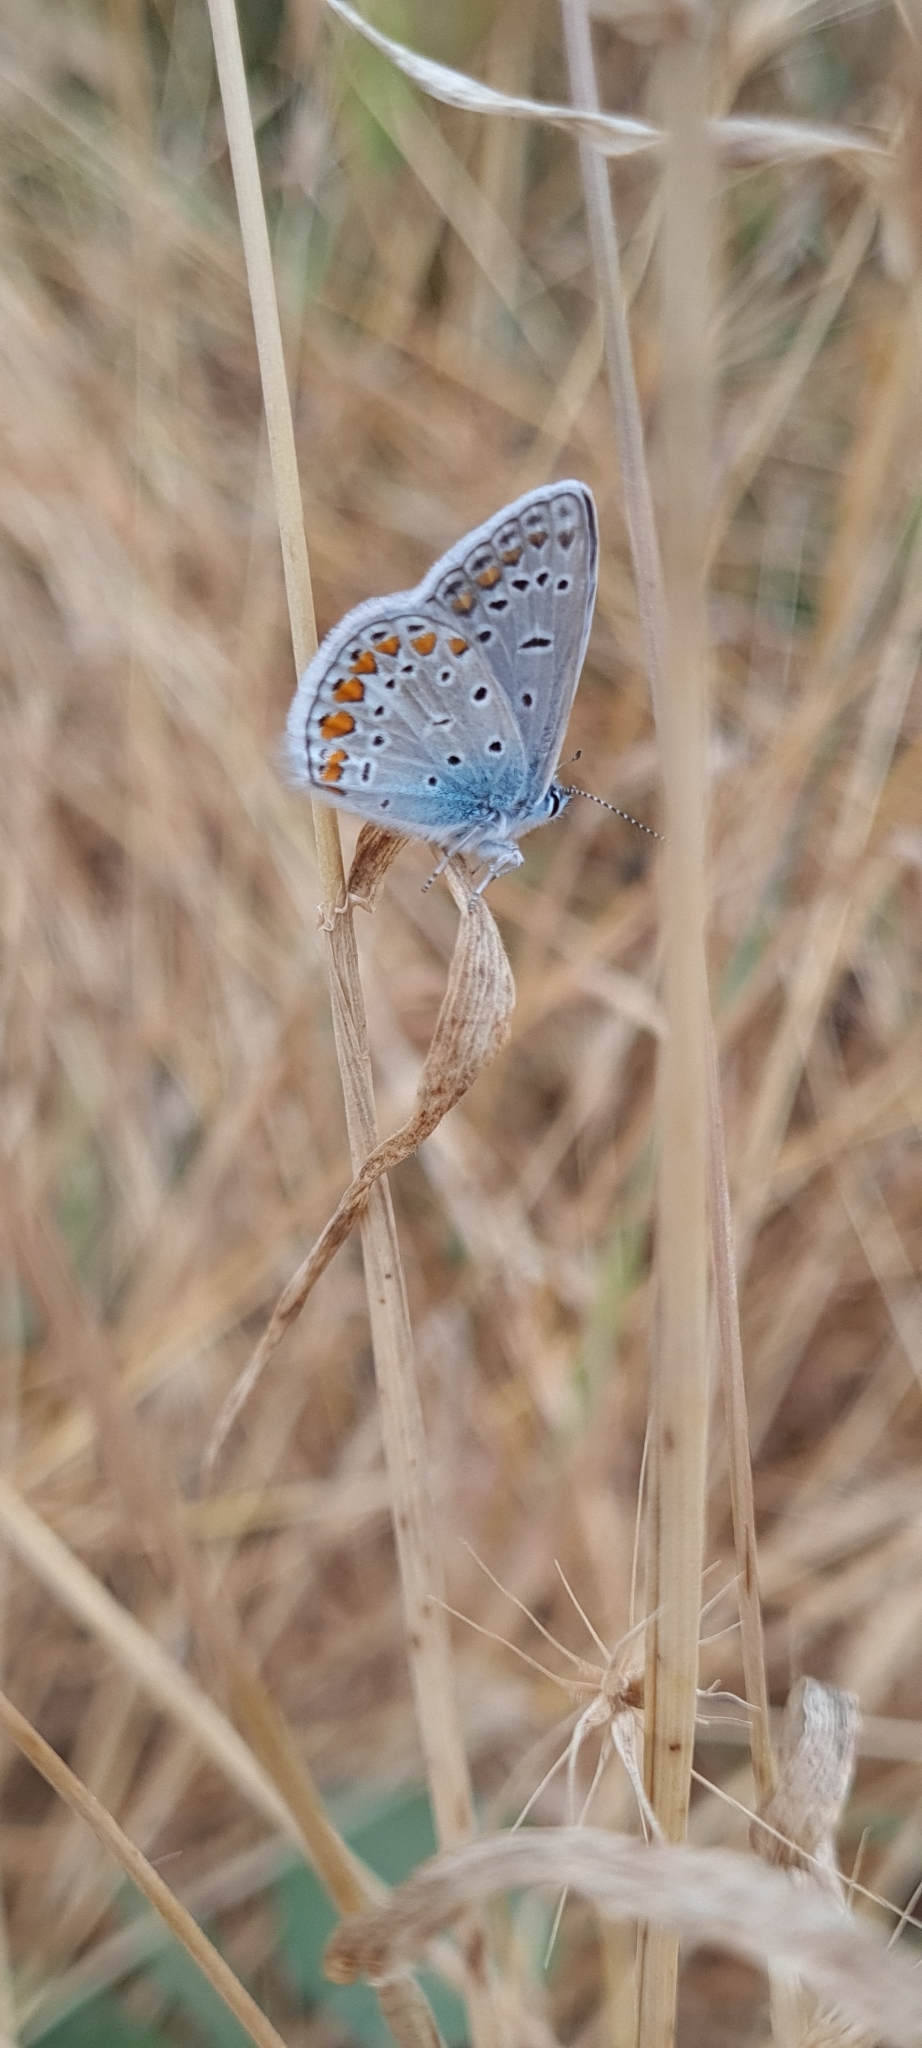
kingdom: Animalia
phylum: Arthropoda
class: Insecta
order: Lepidoptera
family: Lycaenidae
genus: Polyommatus
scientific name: Polyommatus icarus
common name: Common blue
